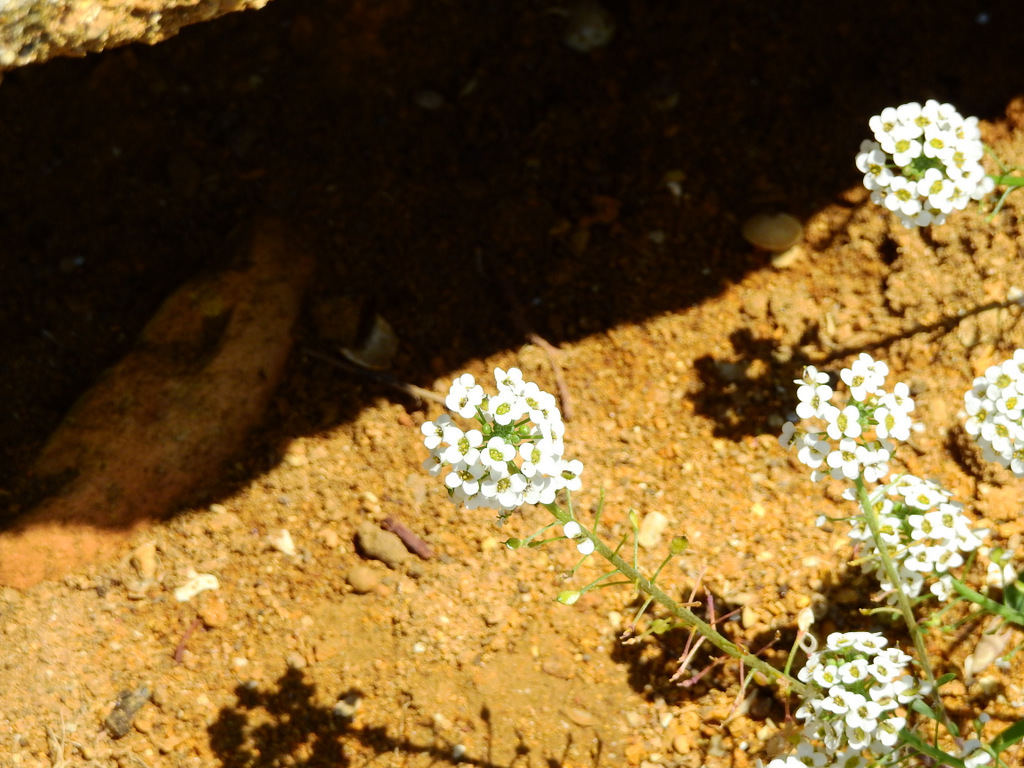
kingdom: Plantae
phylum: Tracheophyta
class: Magnoliopsida
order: Brassicales
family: Brassicaceae
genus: Lobularia
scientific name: Lobularia maritima
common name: Sweet alison
